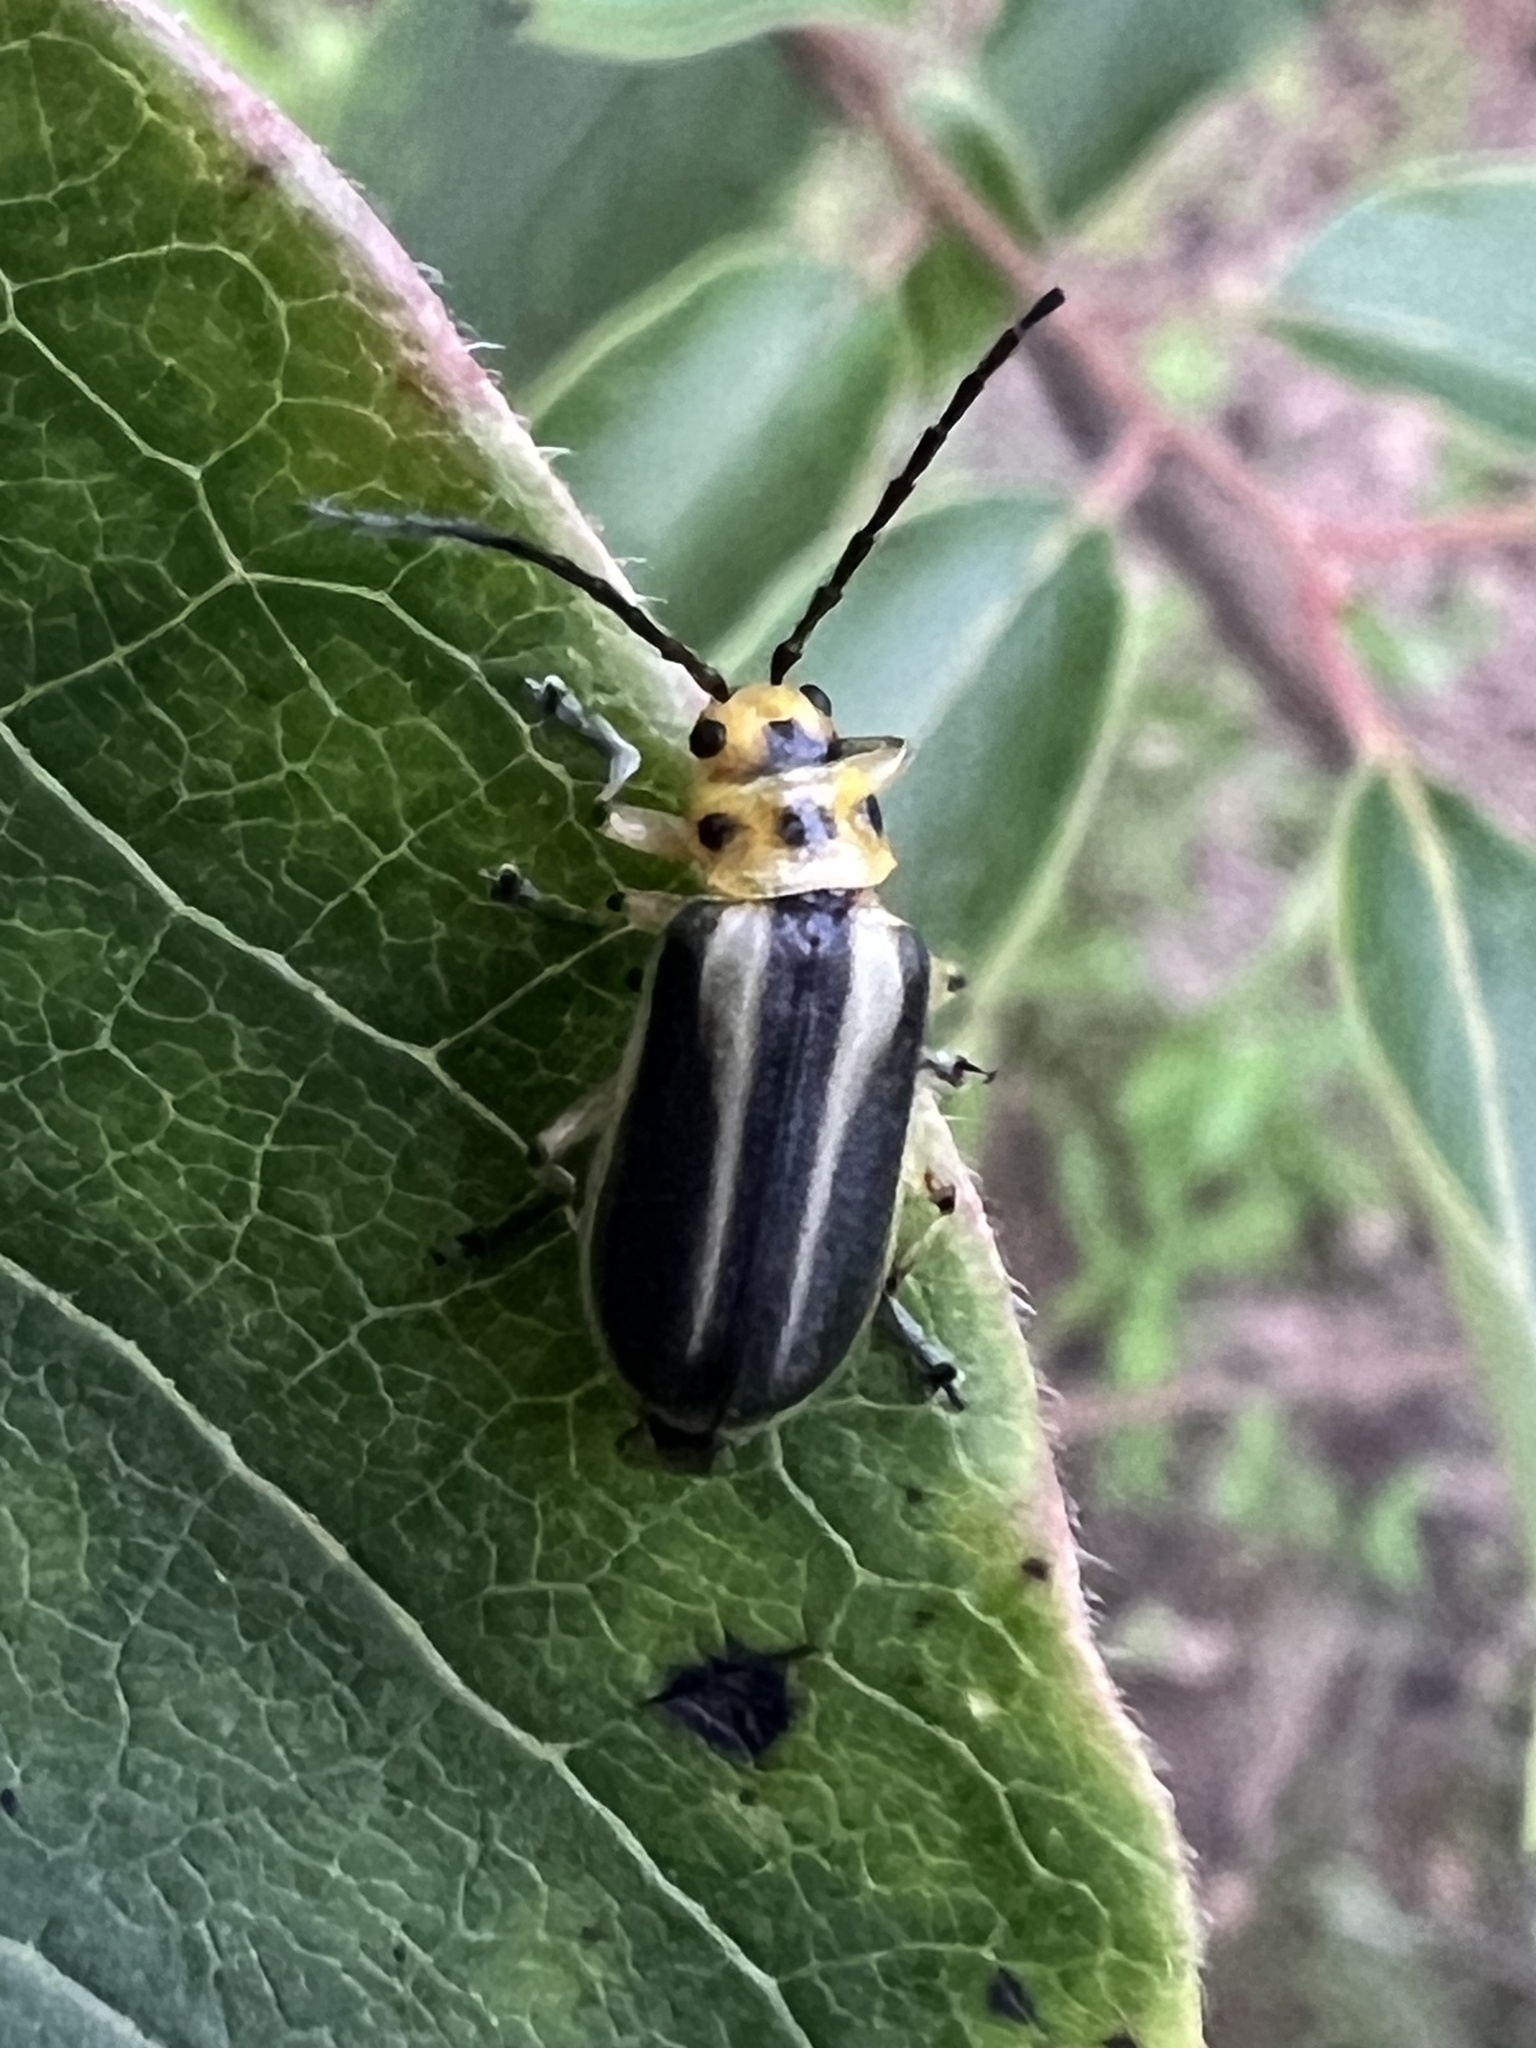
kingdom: Animalia
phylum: Arthropoda
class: Insecta
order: Coleoptera
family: Chrysomelidae
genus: Trirhabda
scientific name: Trirhabda bacharidis
